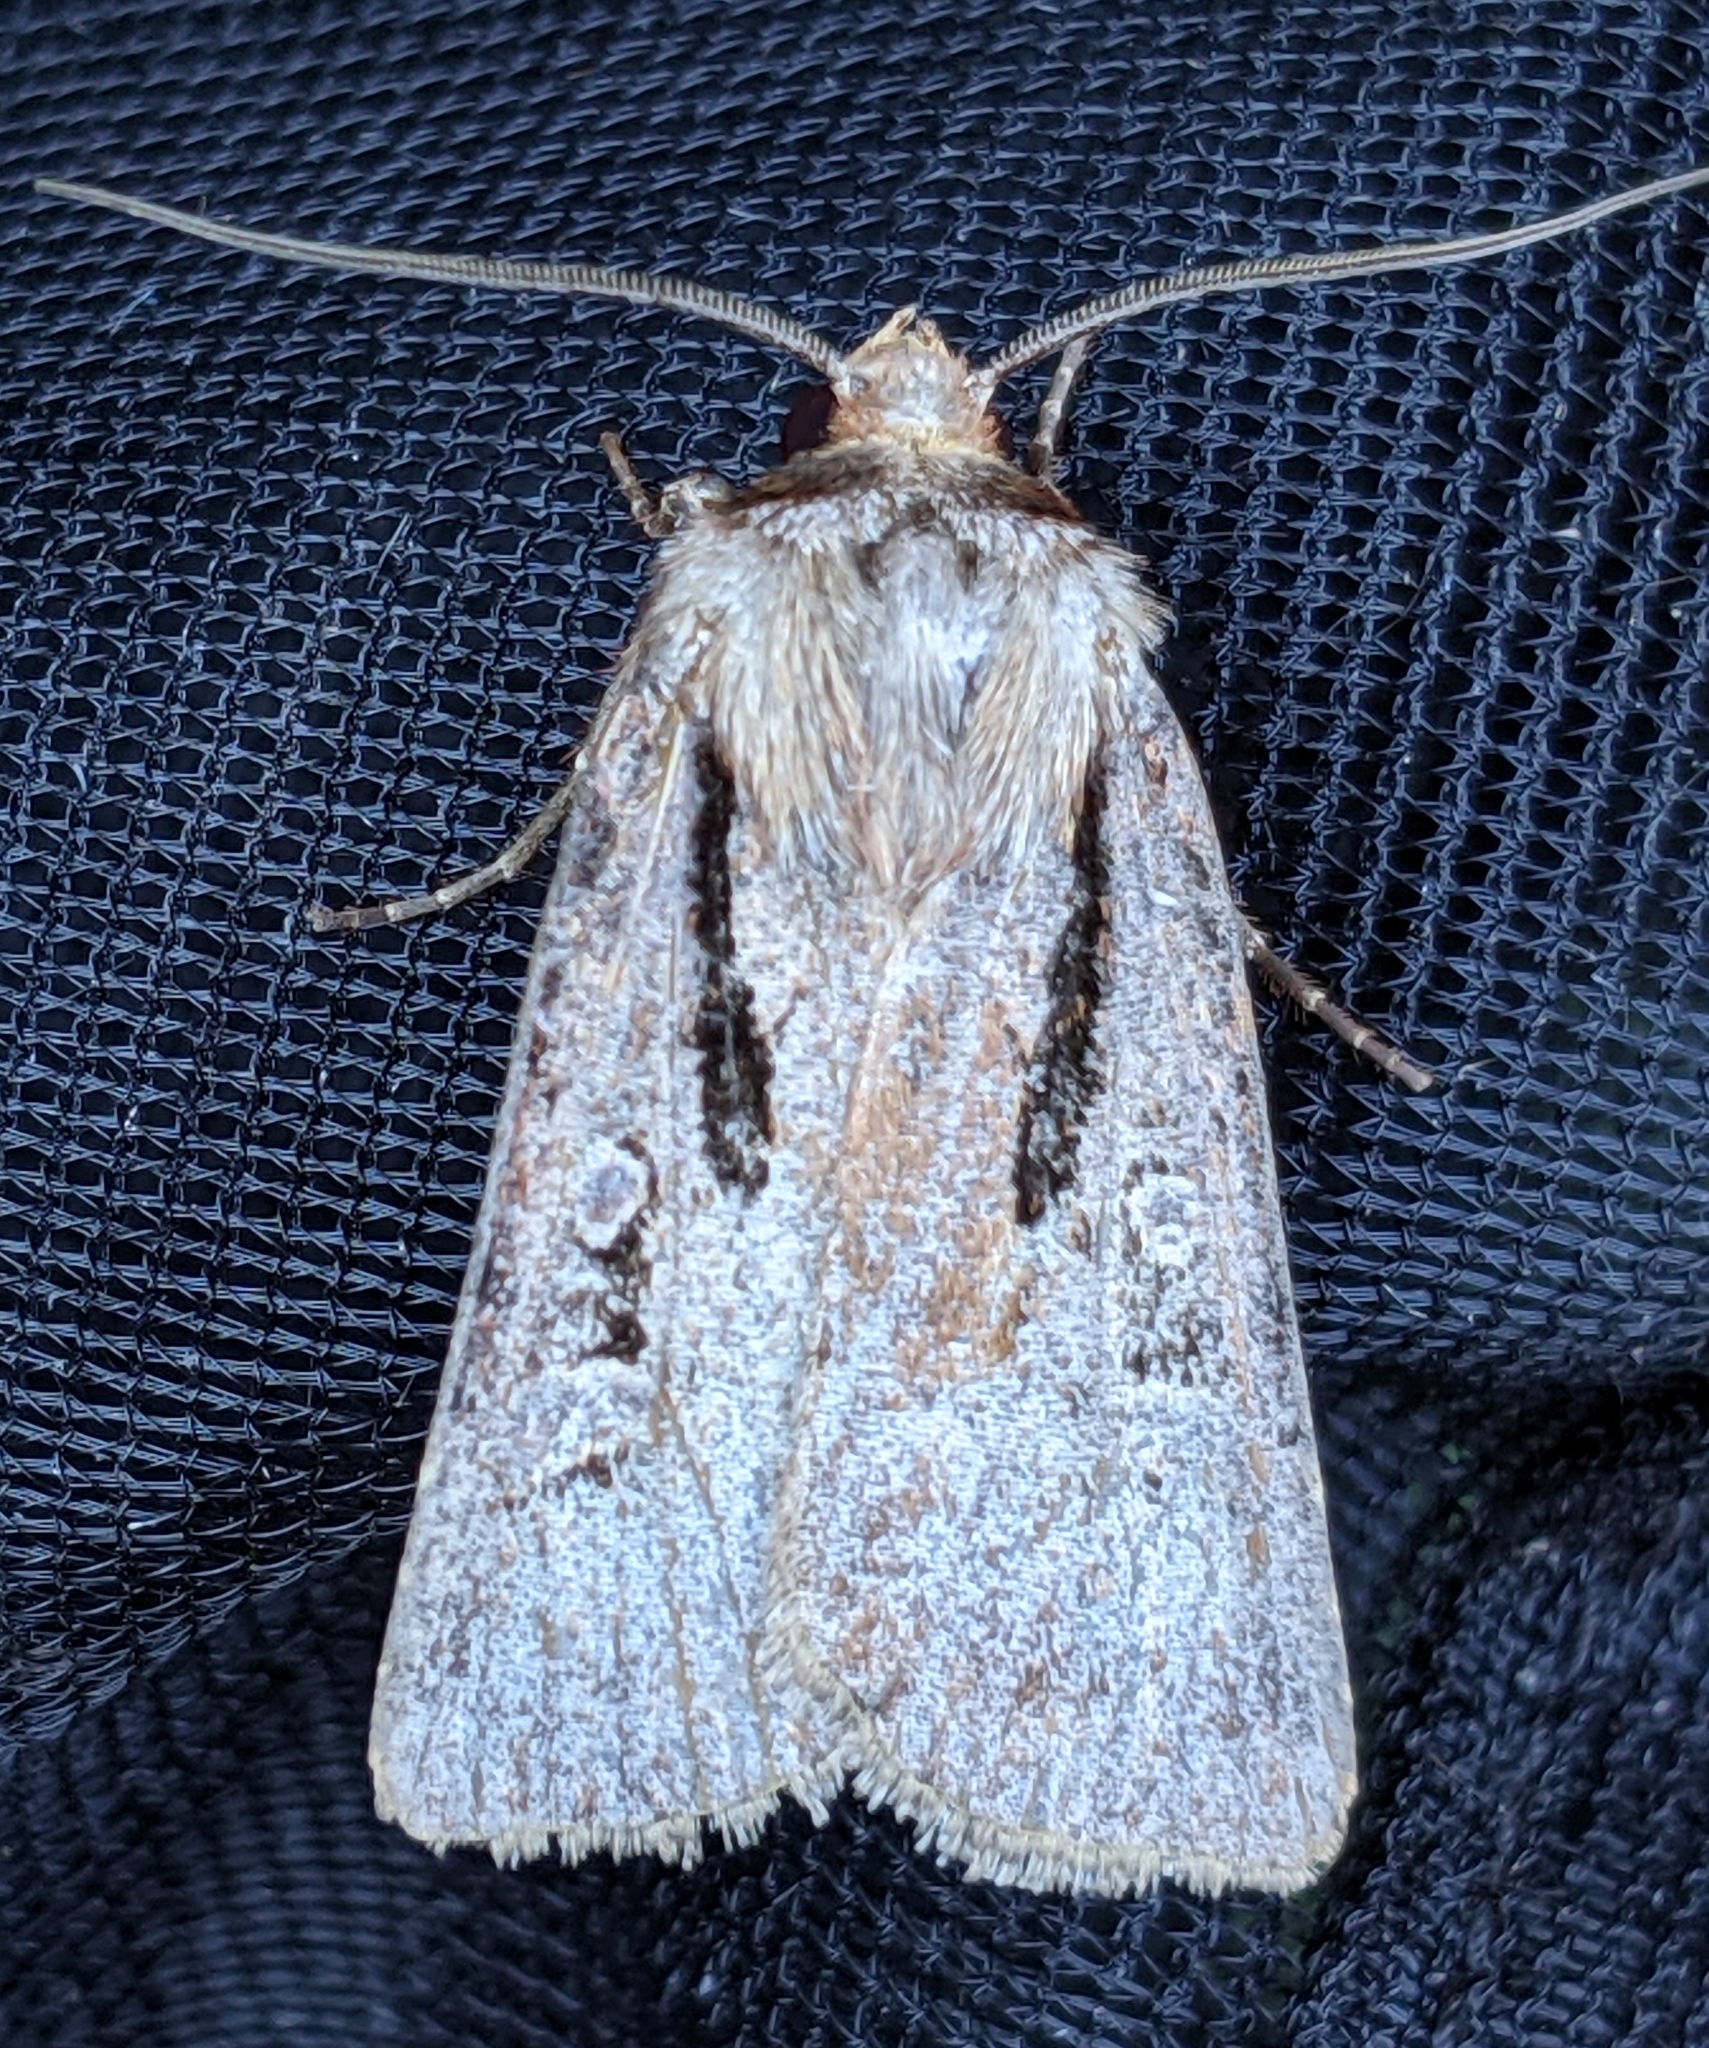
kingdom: Animalia
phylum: Arthropoda
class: Insecta
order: Lepidoptera
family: Noctuidae
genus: Agrotis
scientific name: Agrotis vancouverensis
